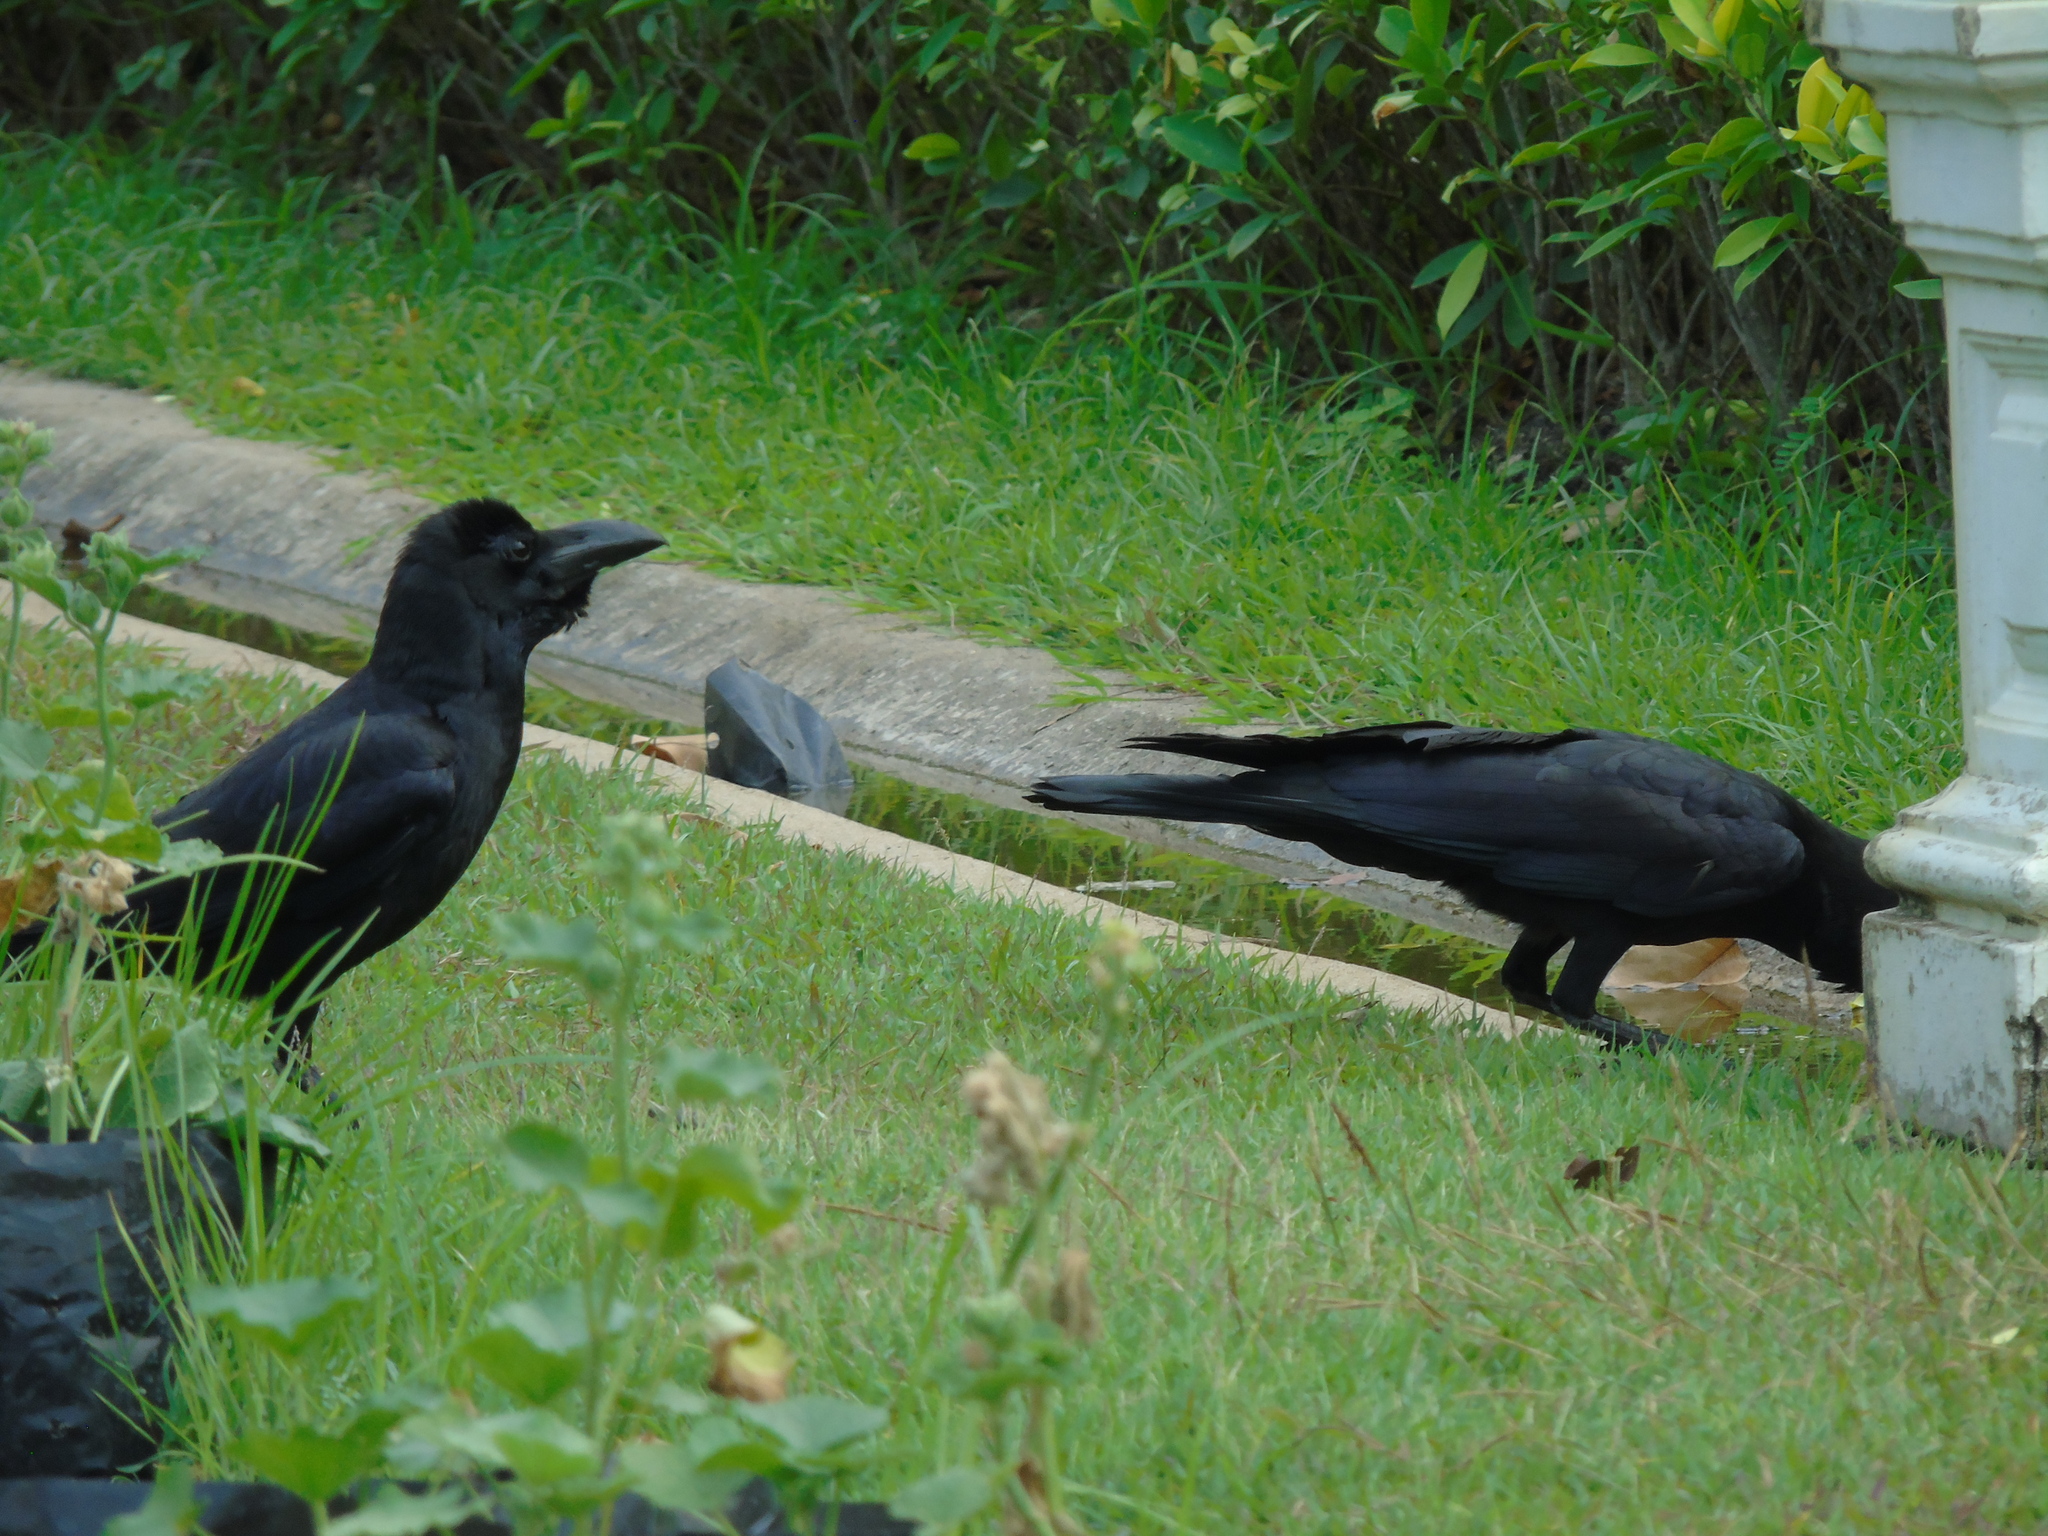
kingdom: Animalia
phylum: Chordata
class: Aves
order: Passeriformes
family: Corvidae
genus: Corvus
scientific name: Corvus macrorhynchos
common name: Large-billed crow
